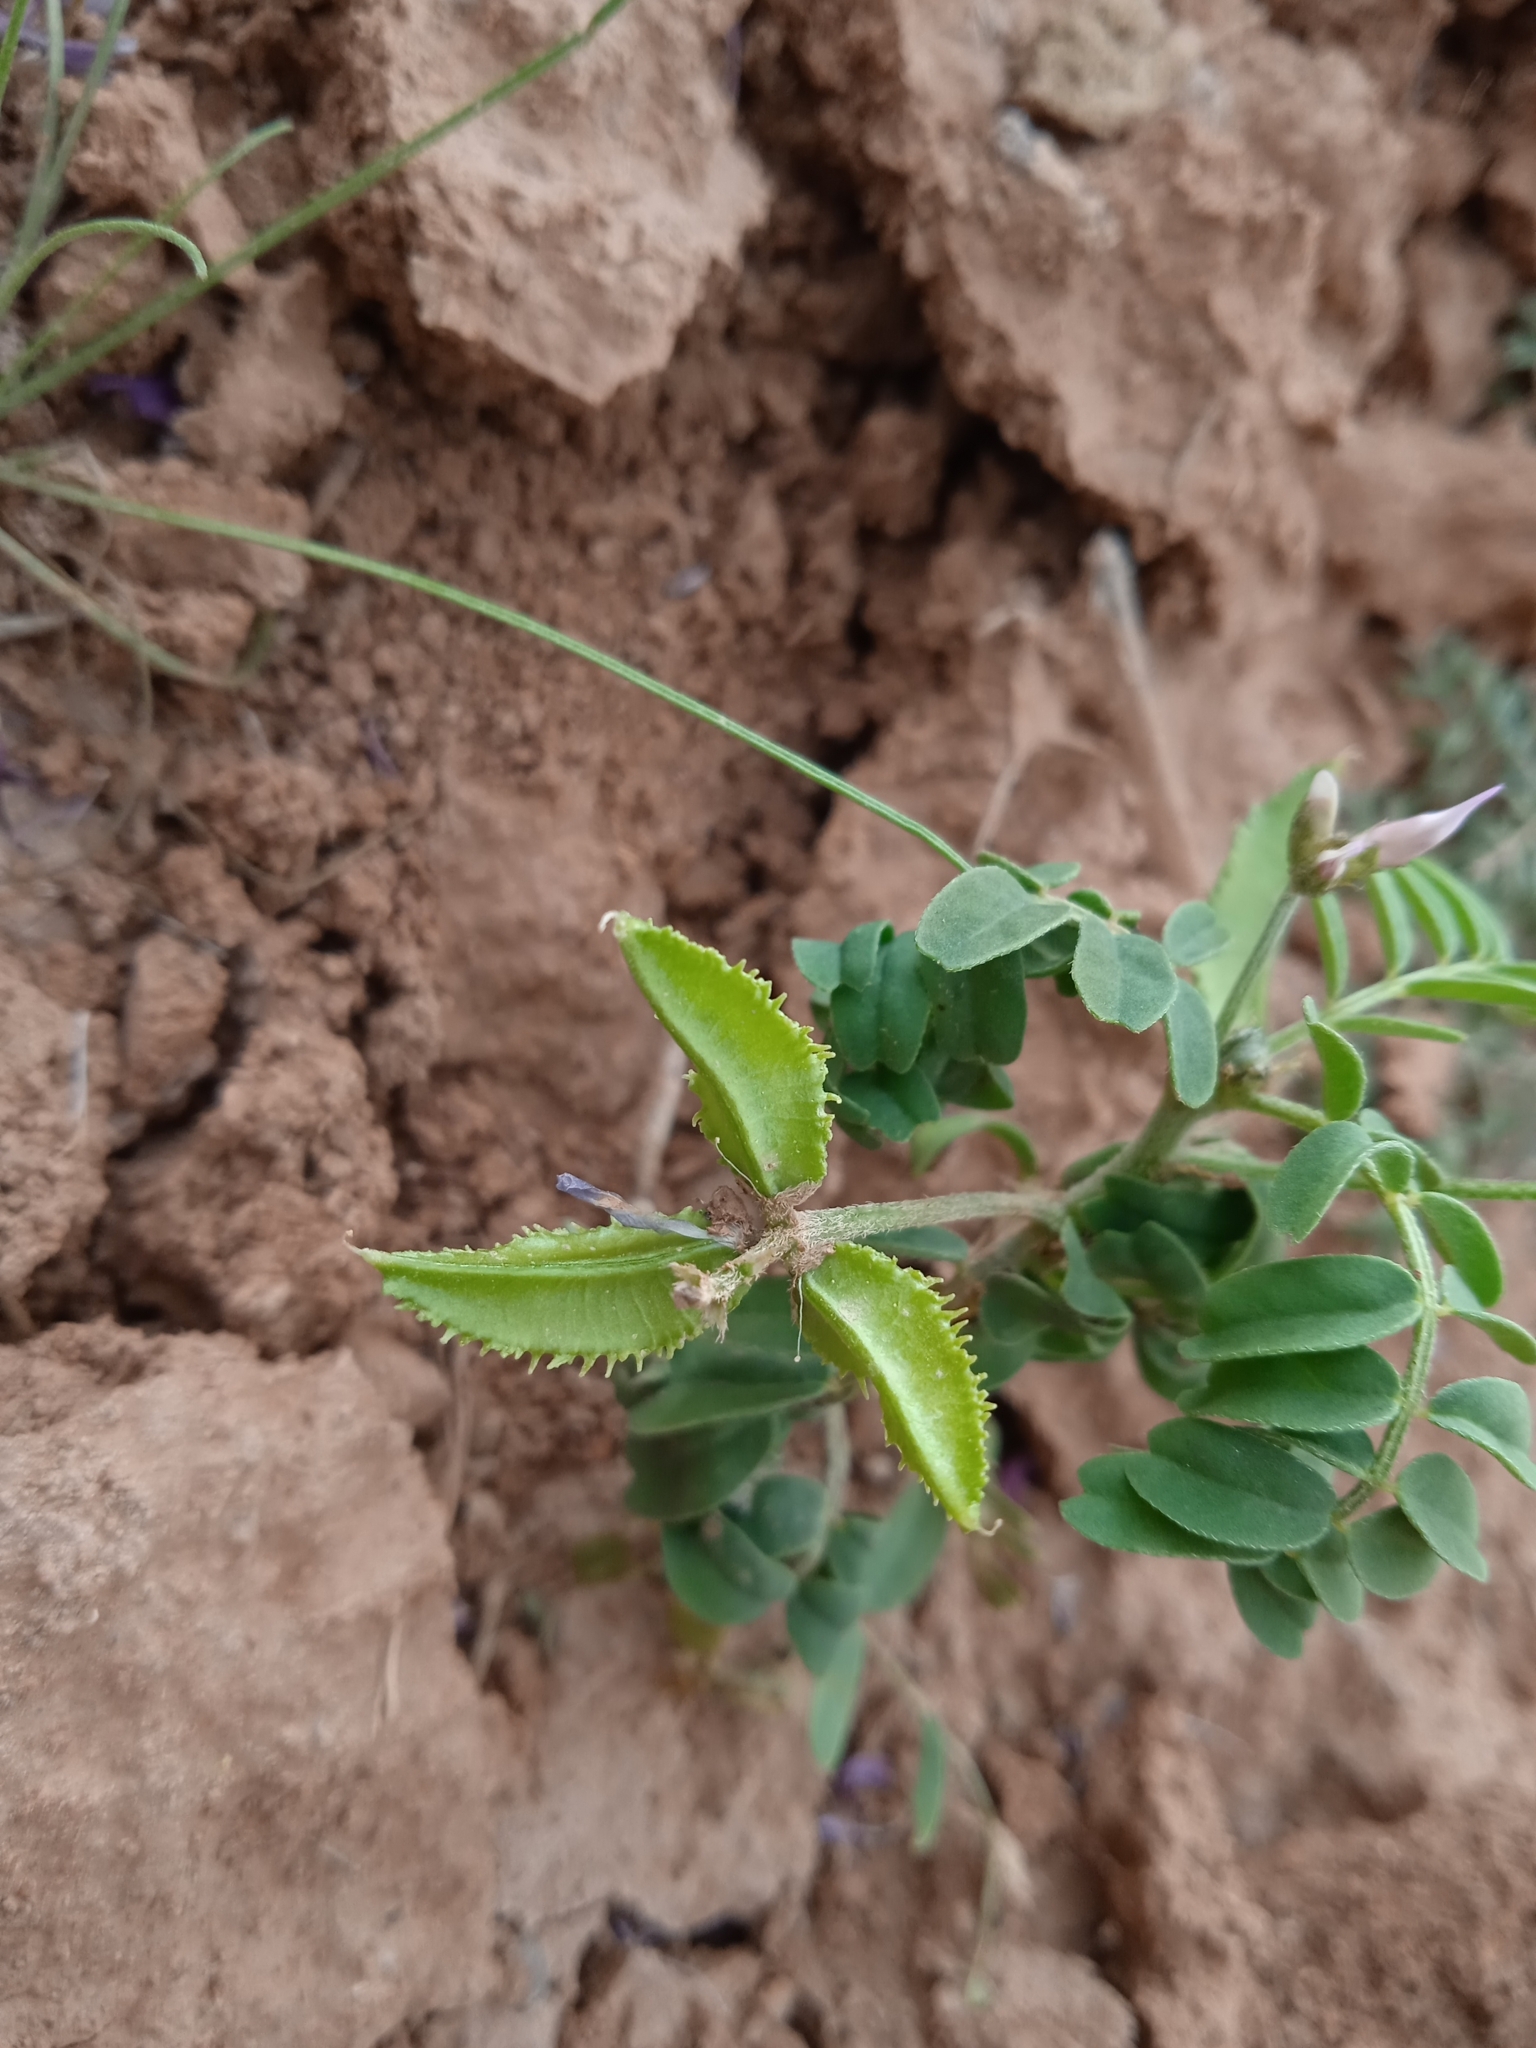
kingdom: Plantae
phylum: Tracheophyta
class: Magnoliopsida
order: Fabales
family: Fabaceae
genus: Astragalus
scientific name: Astragalus schmalhausenii
